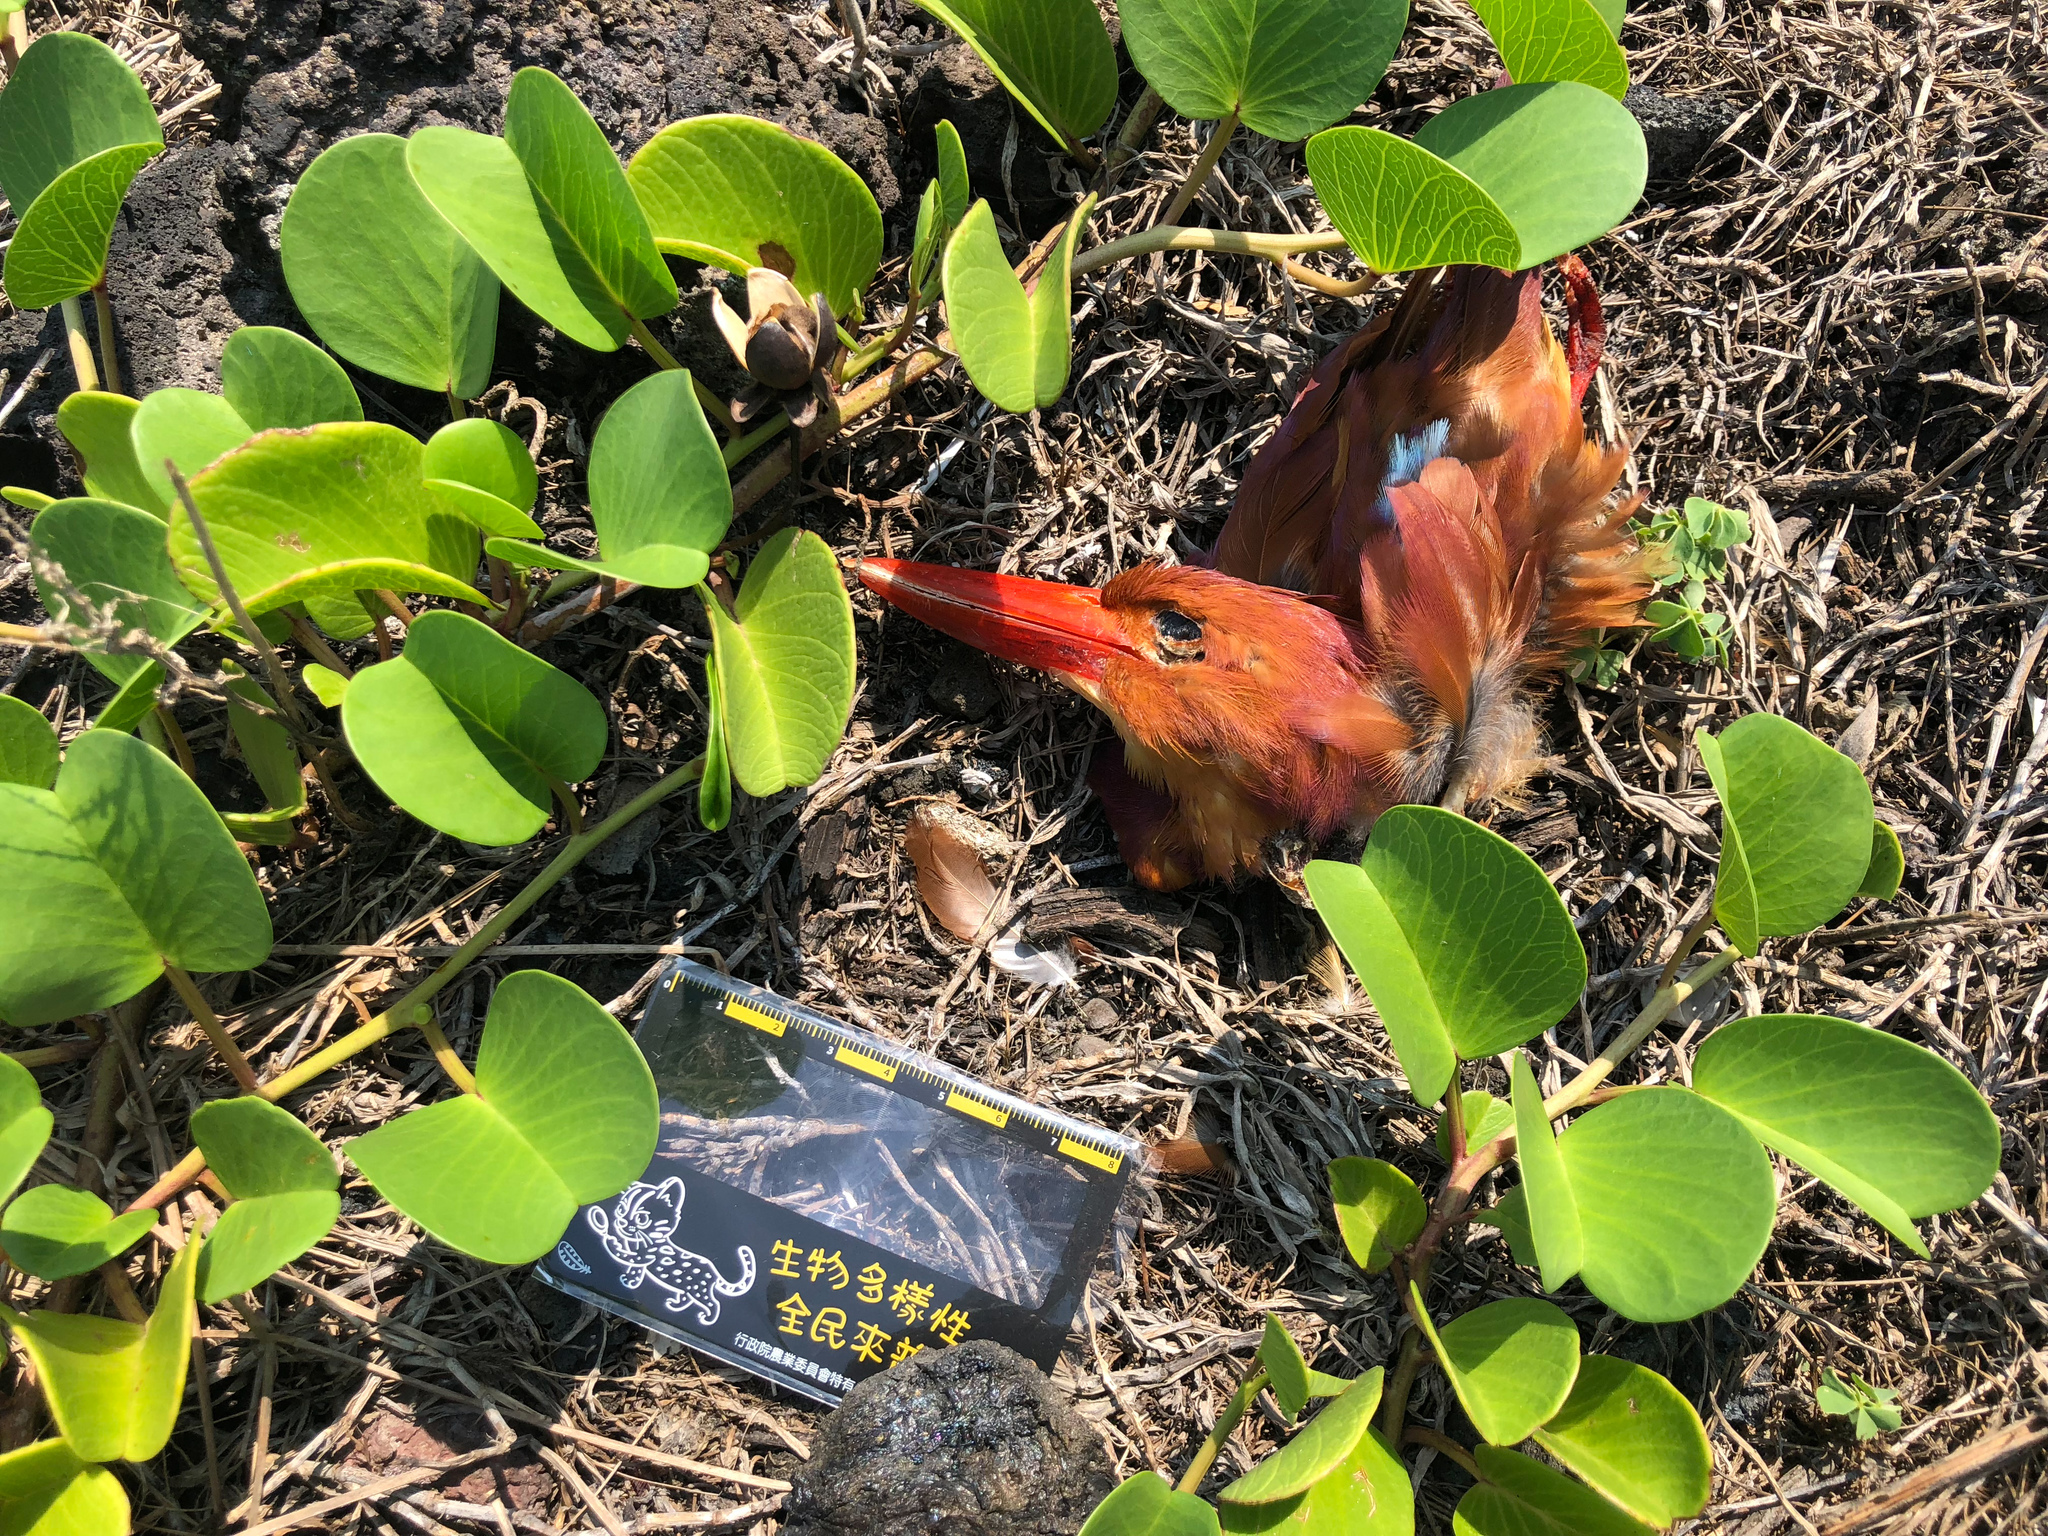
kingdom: Animalia
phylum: Chordata
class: Aves
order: Coraciiformes
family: Alcedinidae
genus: Halcyon
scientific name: Halcyon coromanda
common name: Ruddy kingfisher
